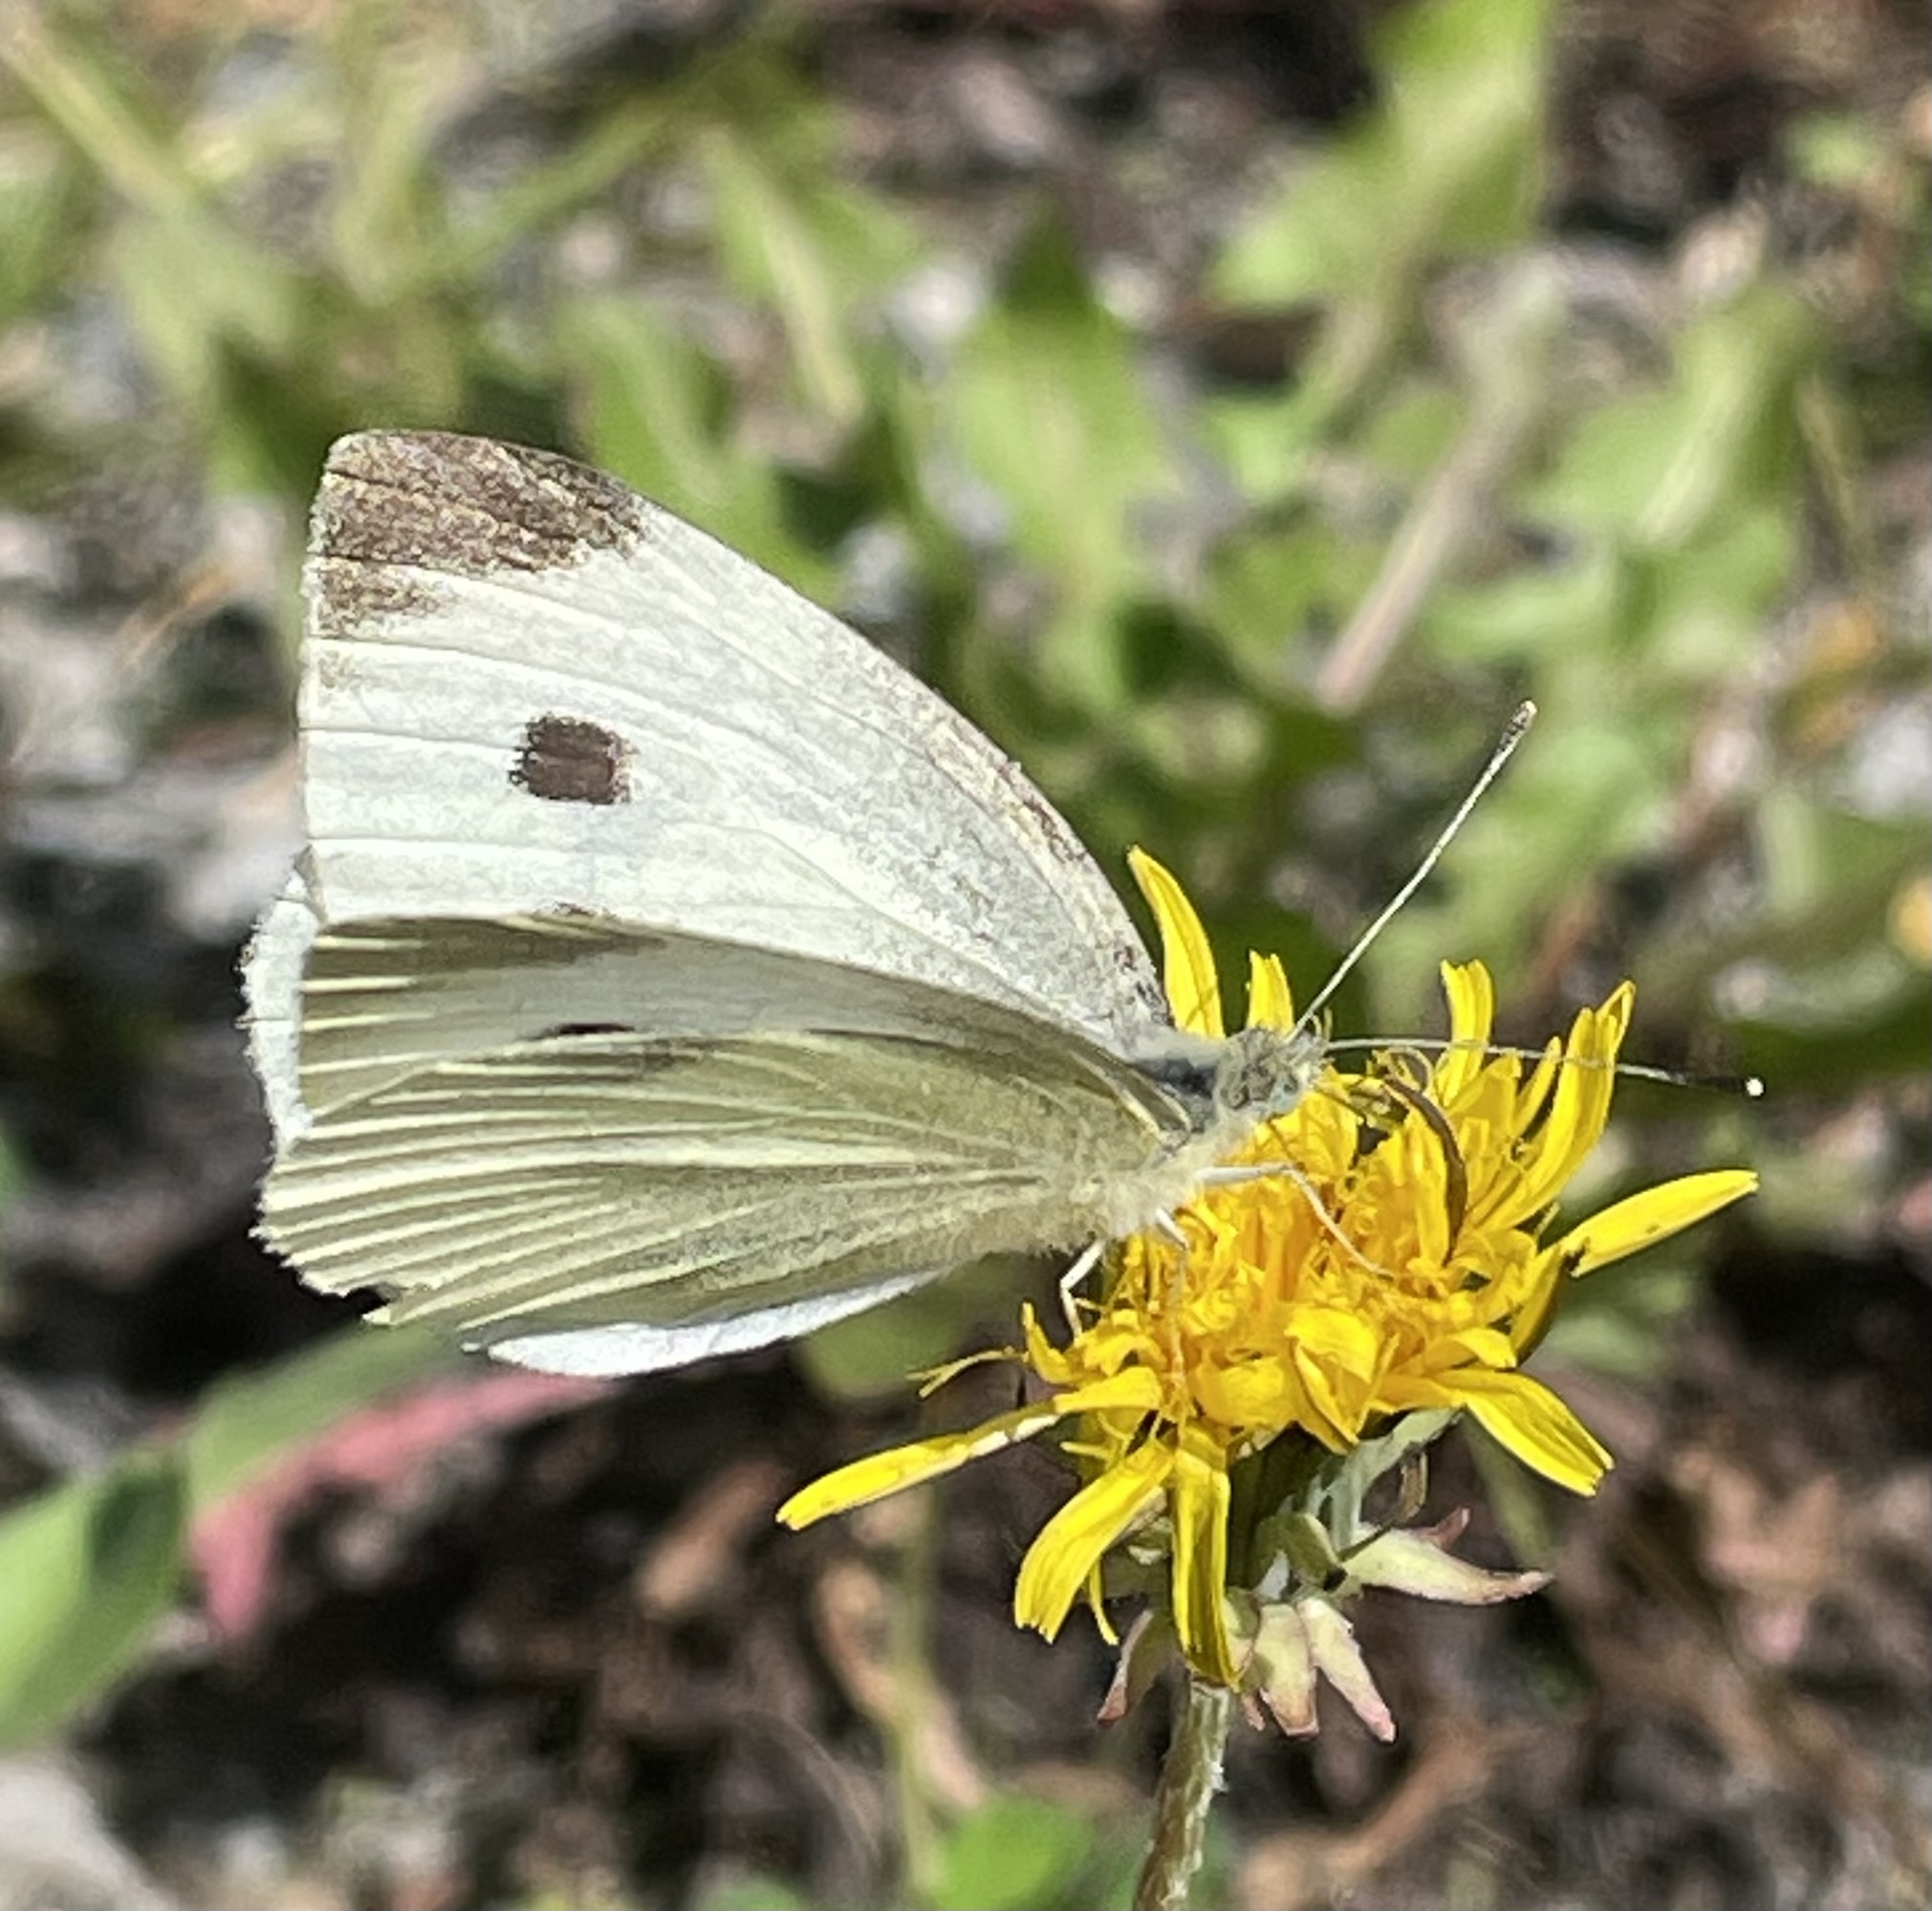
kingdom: Animalia
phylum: Arthropoda
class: Insecta
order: Lepidoptera
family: Pieridae
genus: Pieris
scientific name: Pieris rapae
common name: Small white
